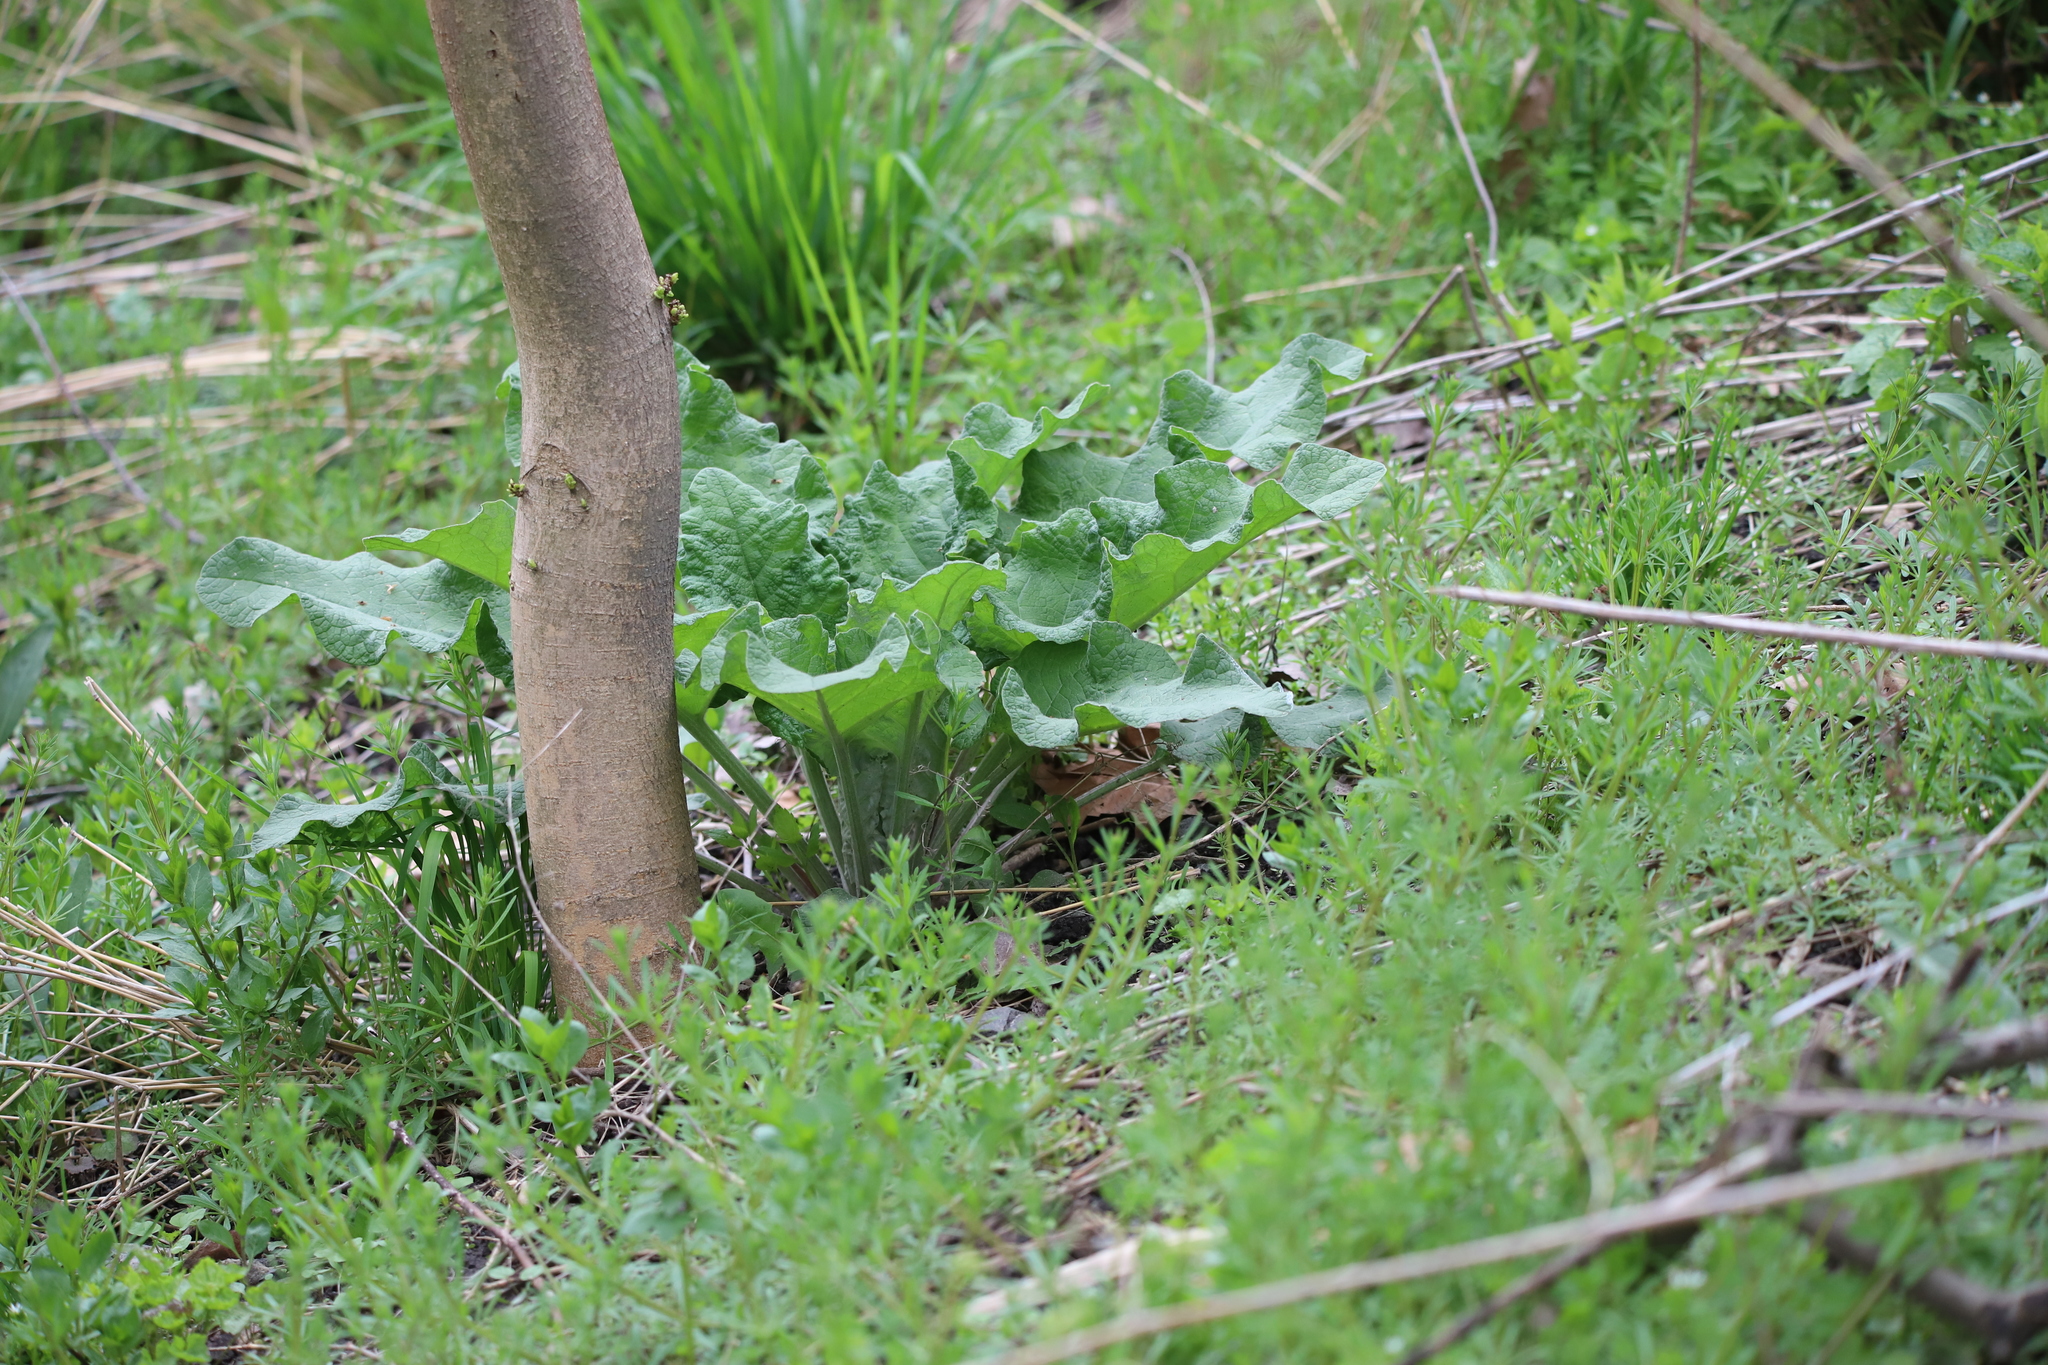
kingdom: Plantae
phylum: Tracheophyta
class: Magnoliopsida
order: Asterales
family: Asteraceae
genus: Arctium
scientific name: Arctium
